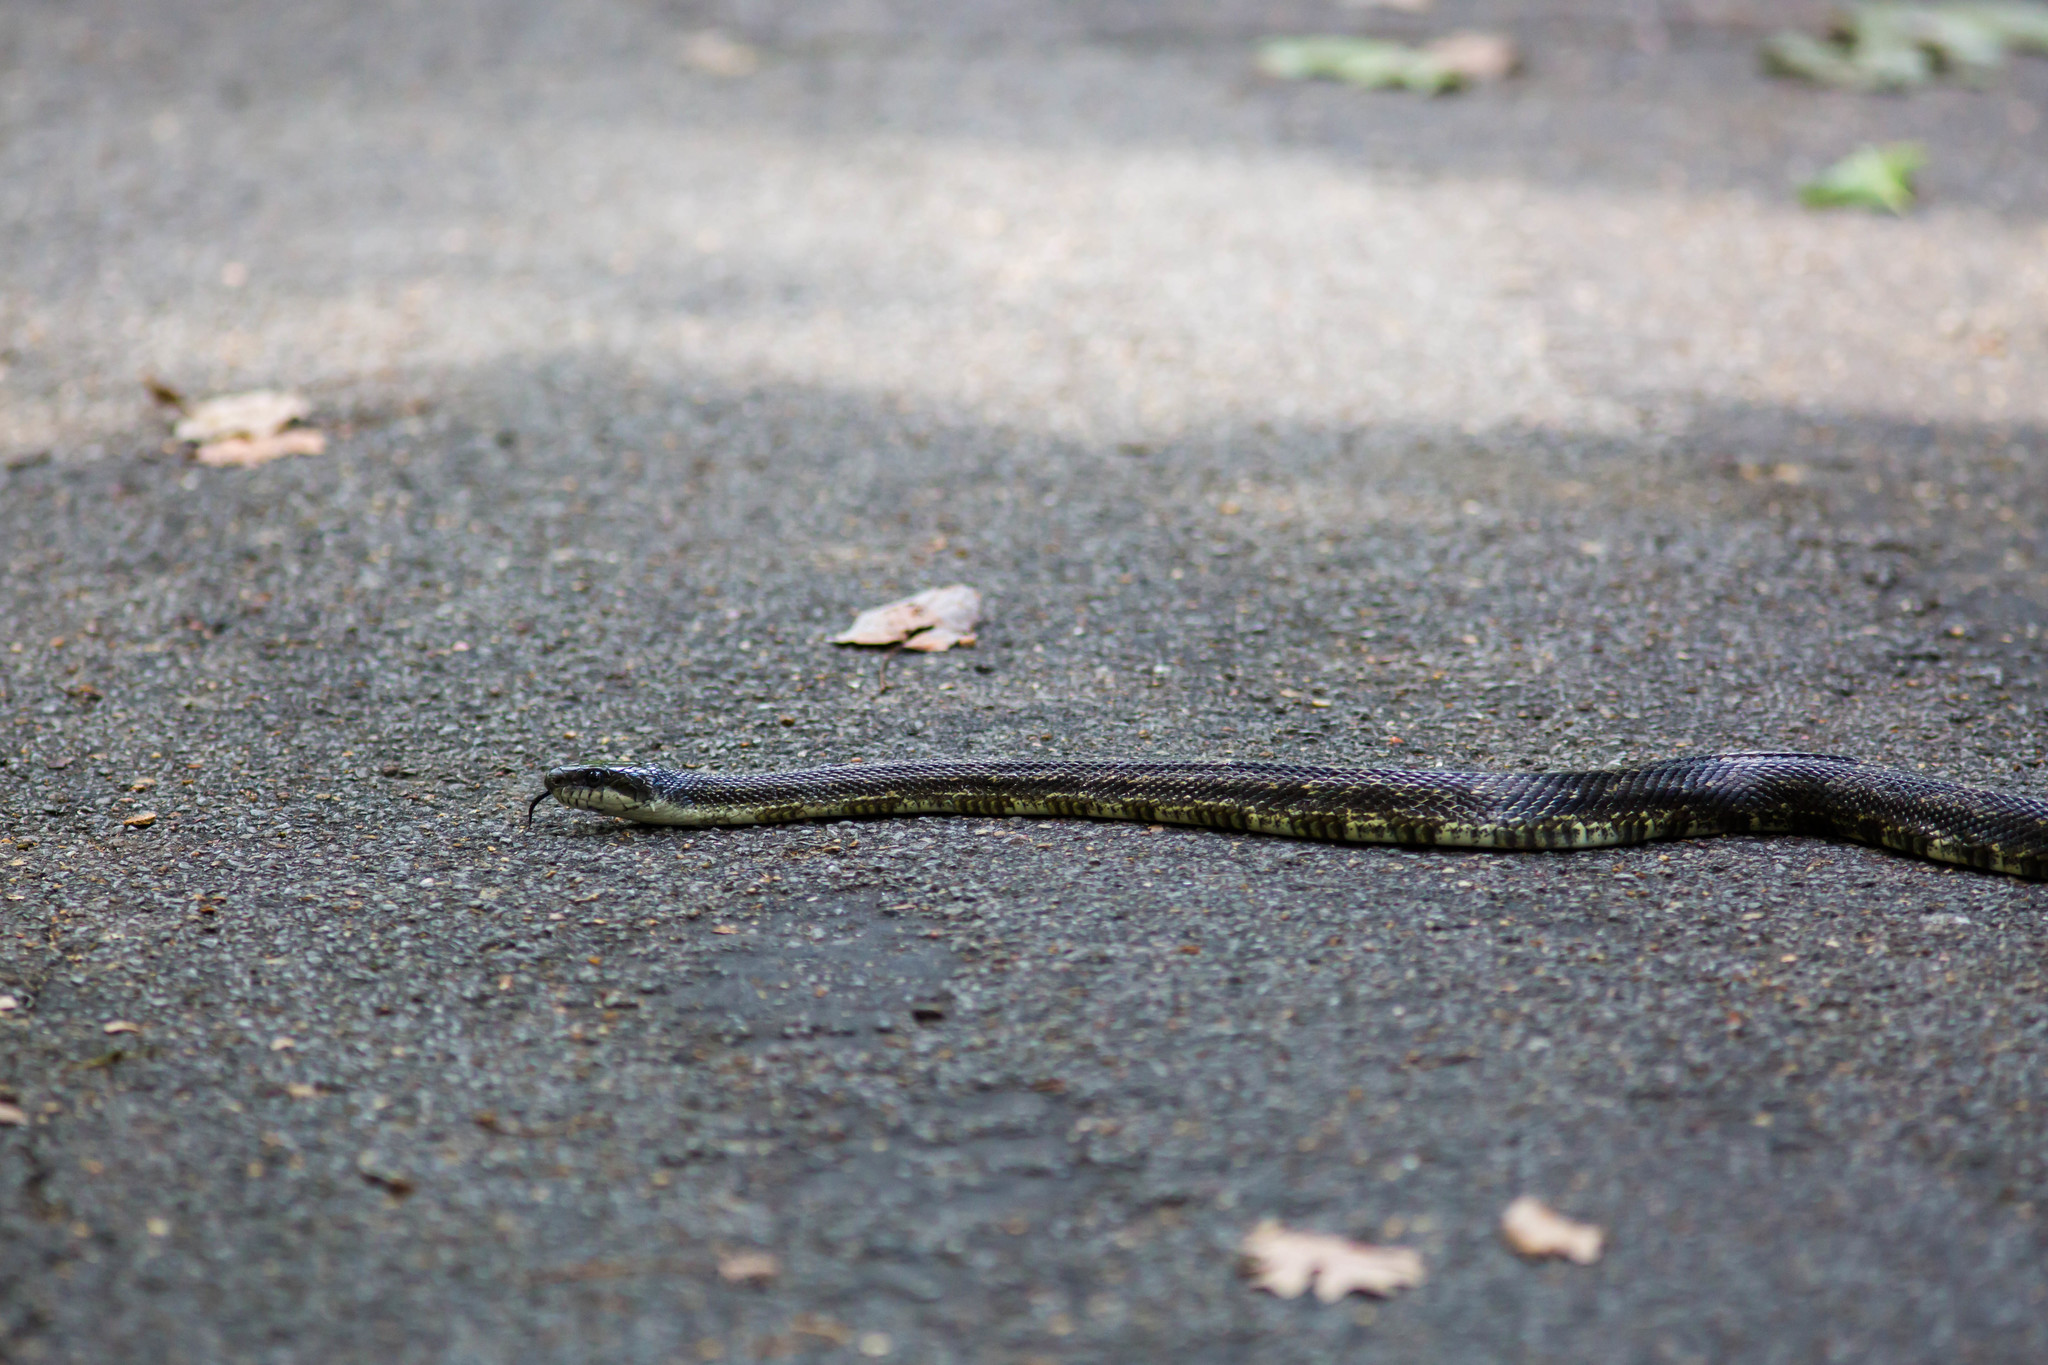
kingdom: Animalia
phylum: Chordata
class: Squamata
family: Colubridae
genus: Pantherophis
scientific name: Pantherophis spiloides
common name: Gray rat snake
